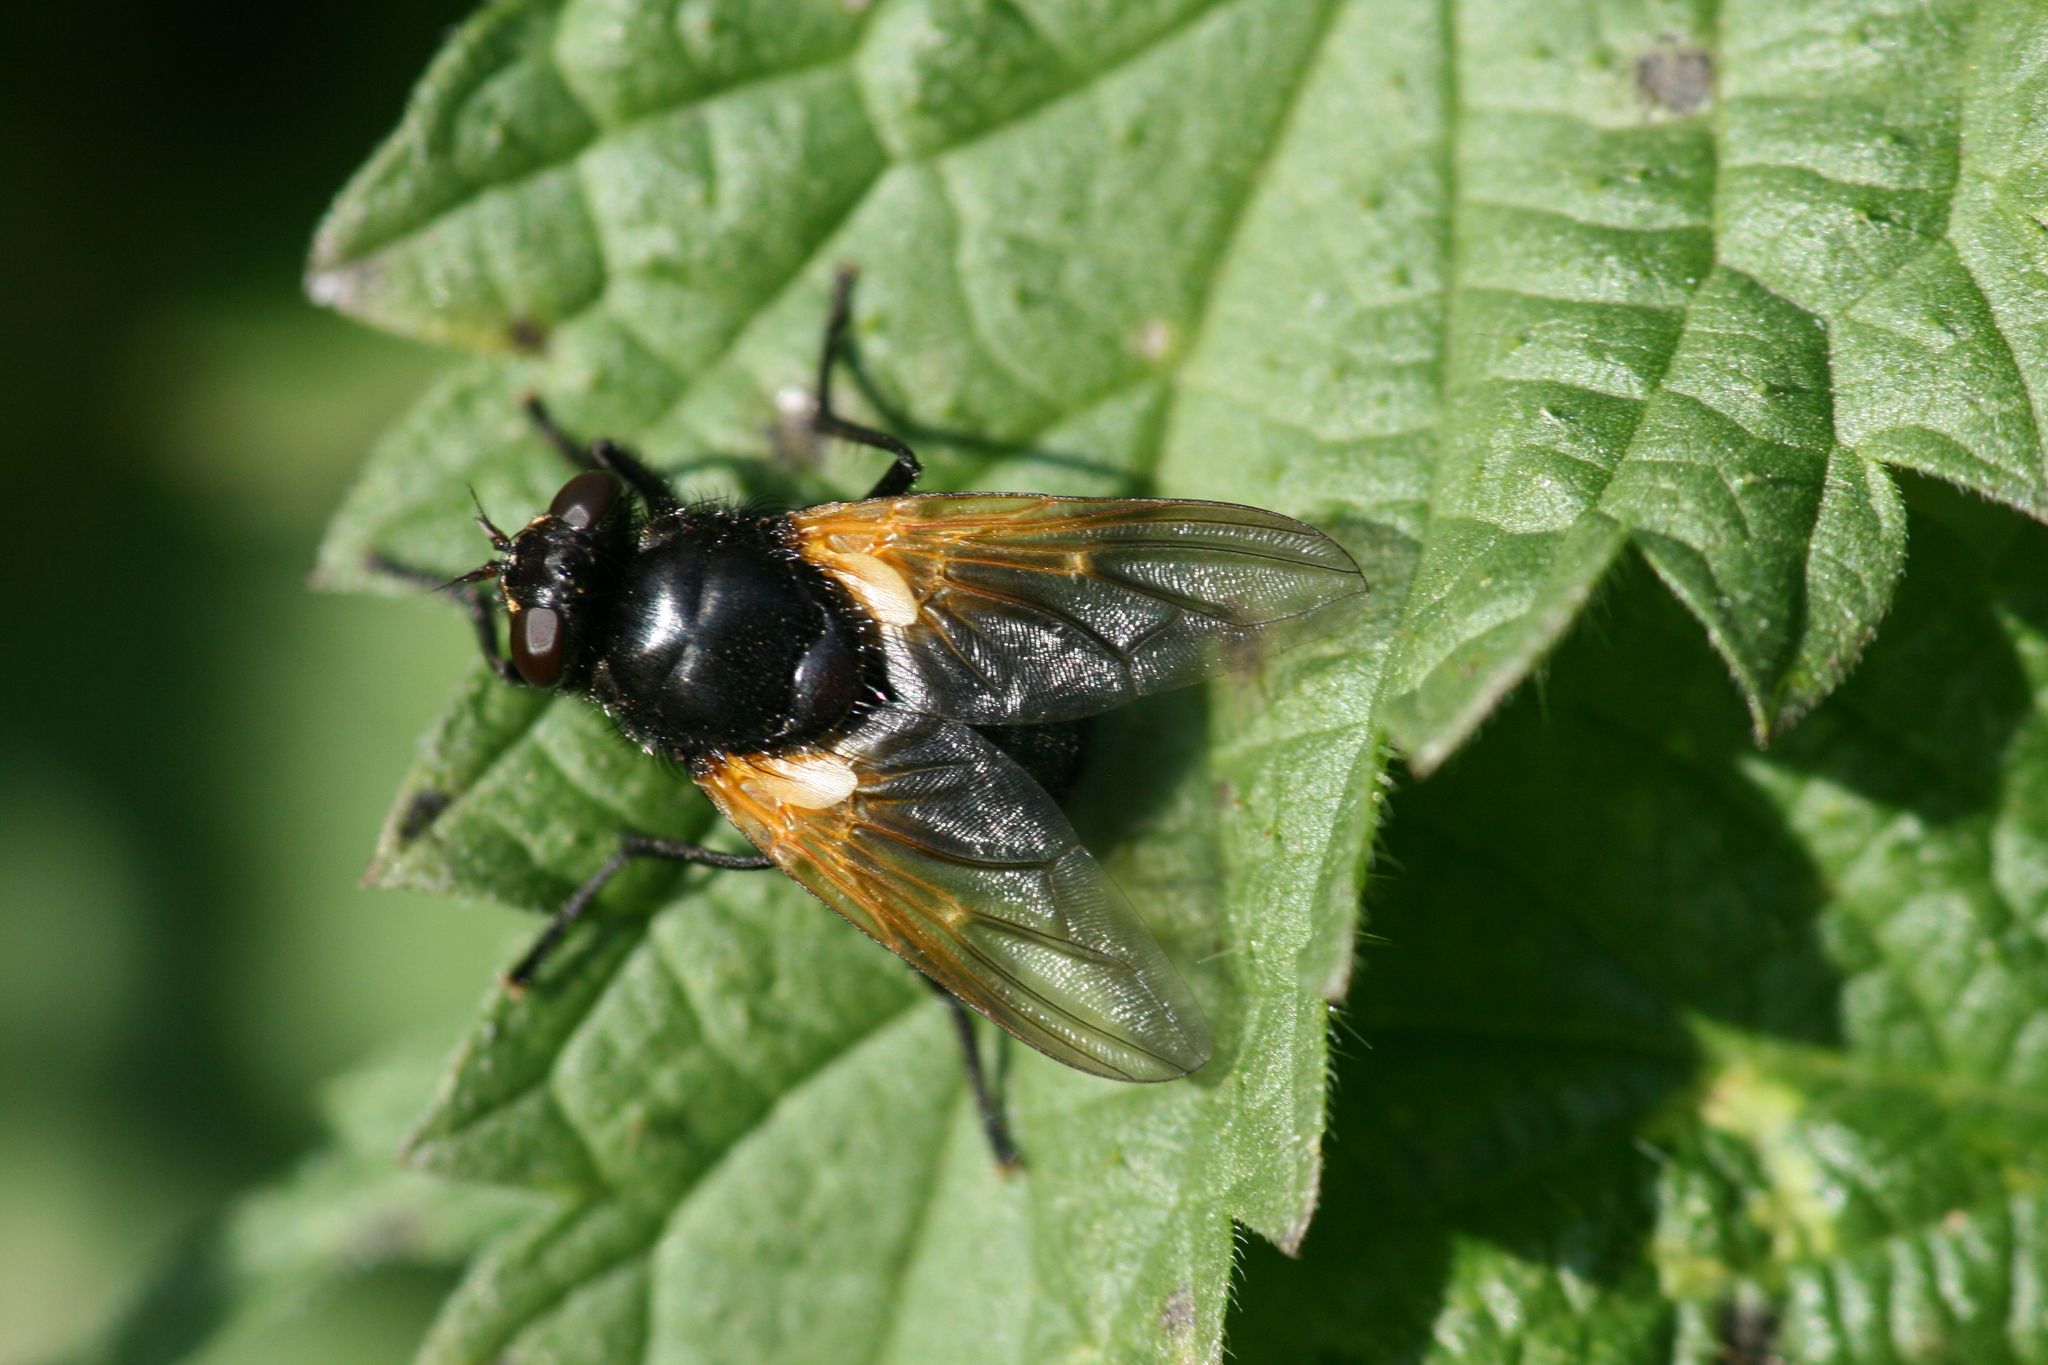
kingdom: Animalia
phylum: Arthropoda
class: Insecta
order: Diptera
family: Muscidae
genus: Mesembrina
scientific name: Mesembrina meridiana
